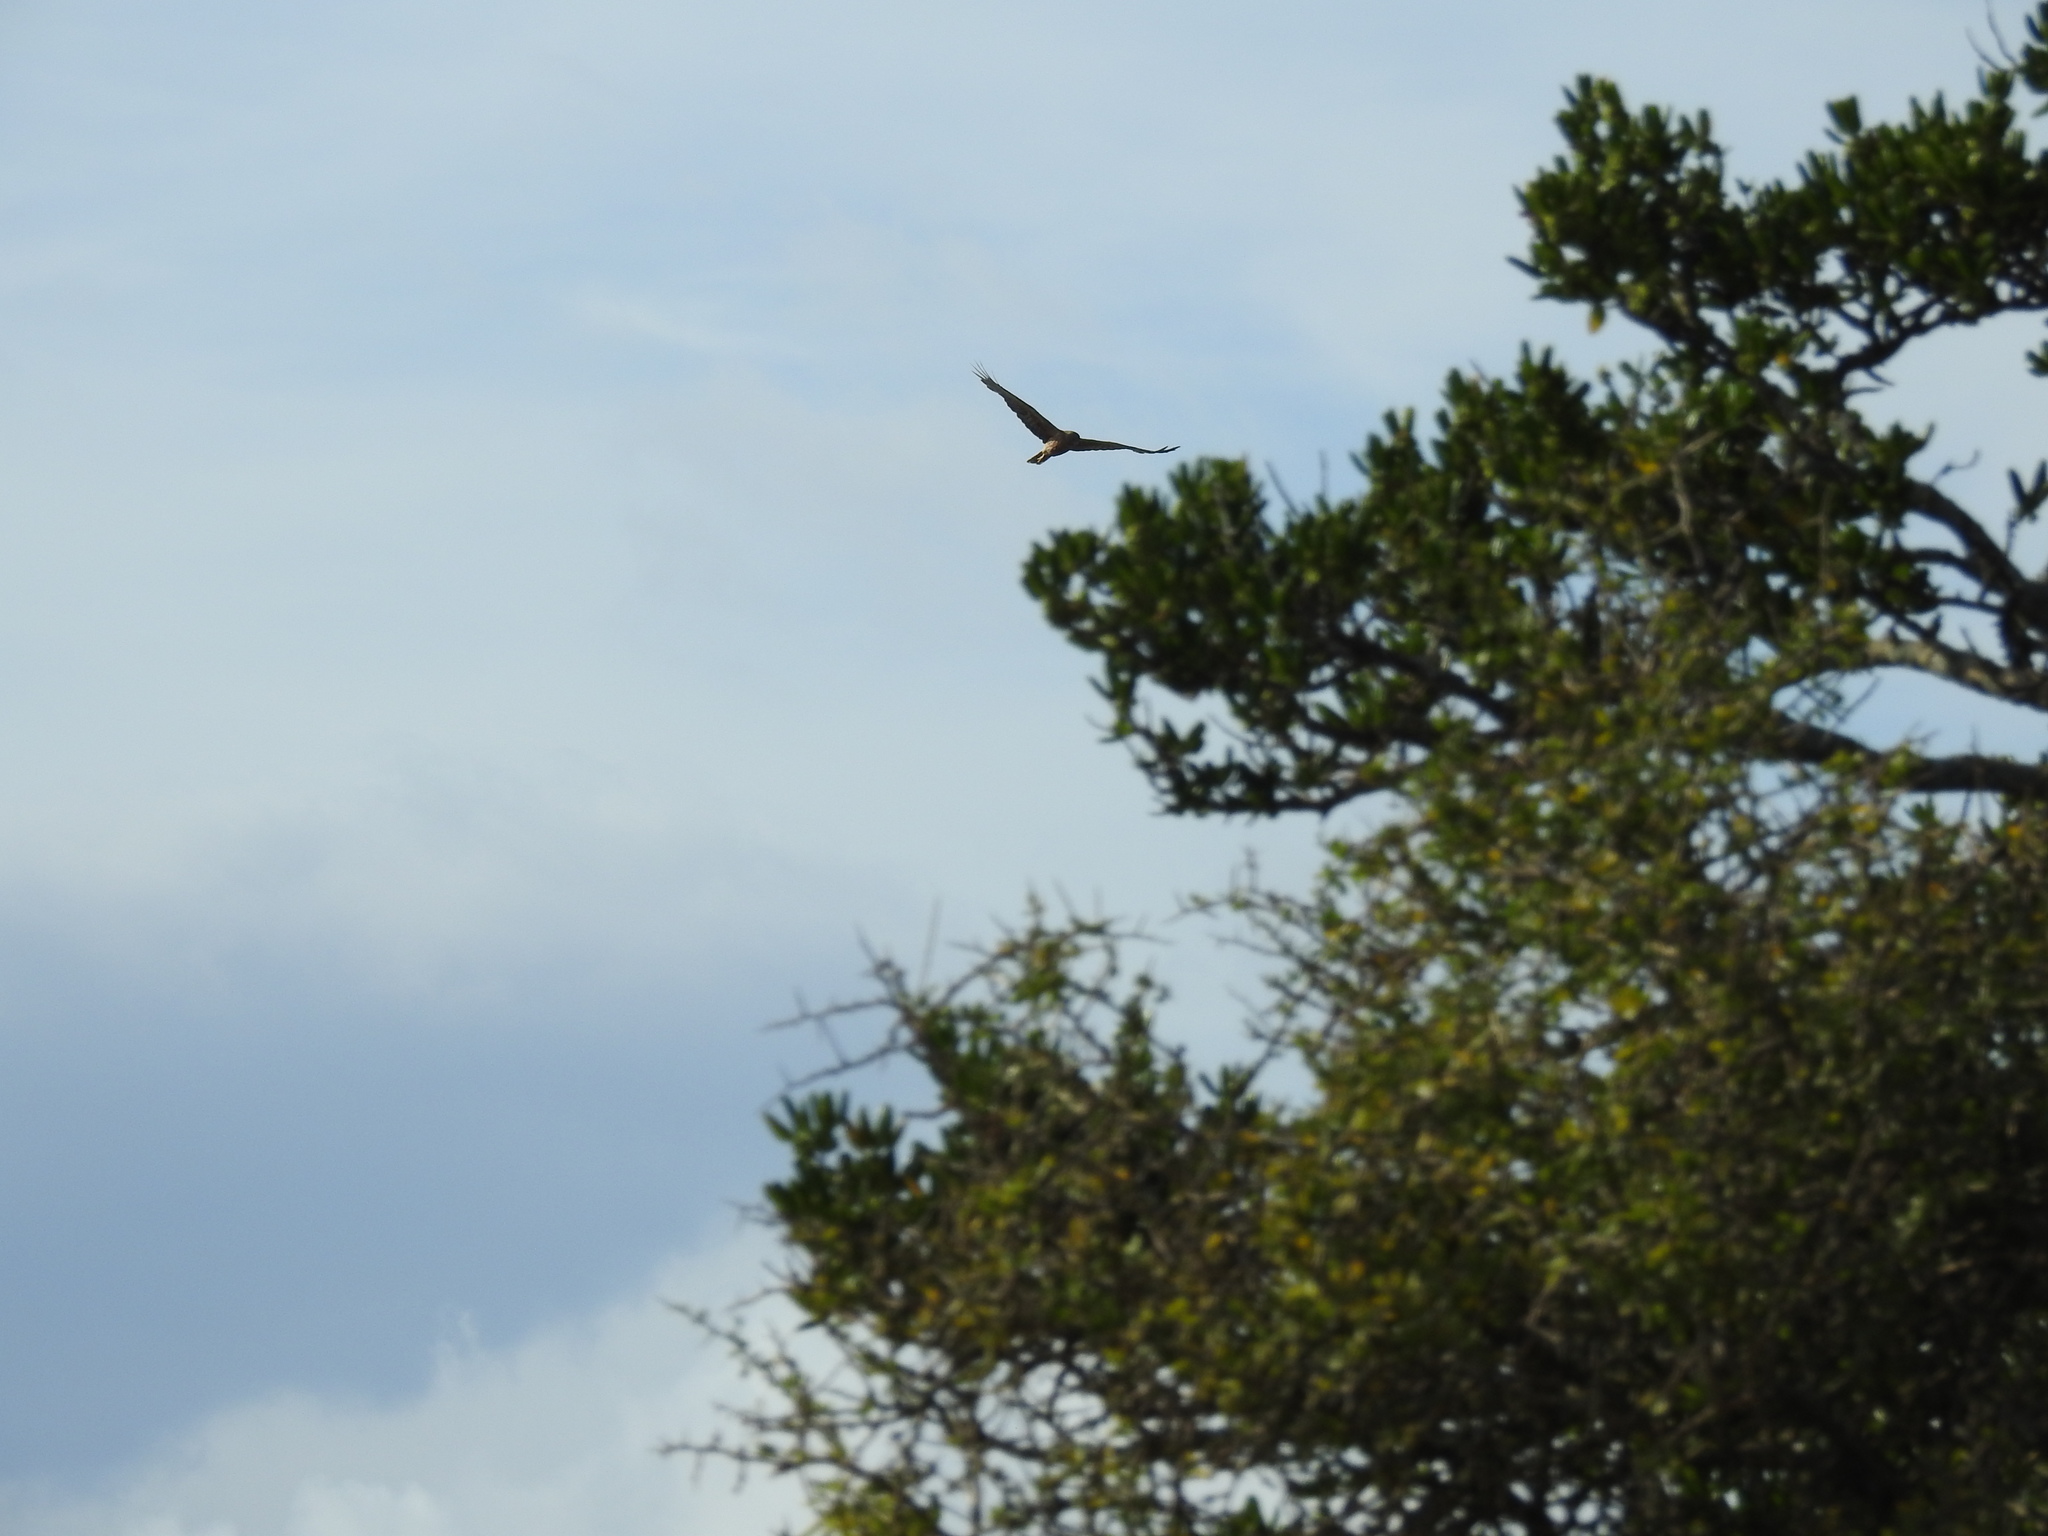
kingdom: Animalia
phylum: Chordata
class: Aves
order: Accipitriformes
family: Accipitridae
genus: Circus
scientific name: Circus approximans
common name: Swamp harrier
